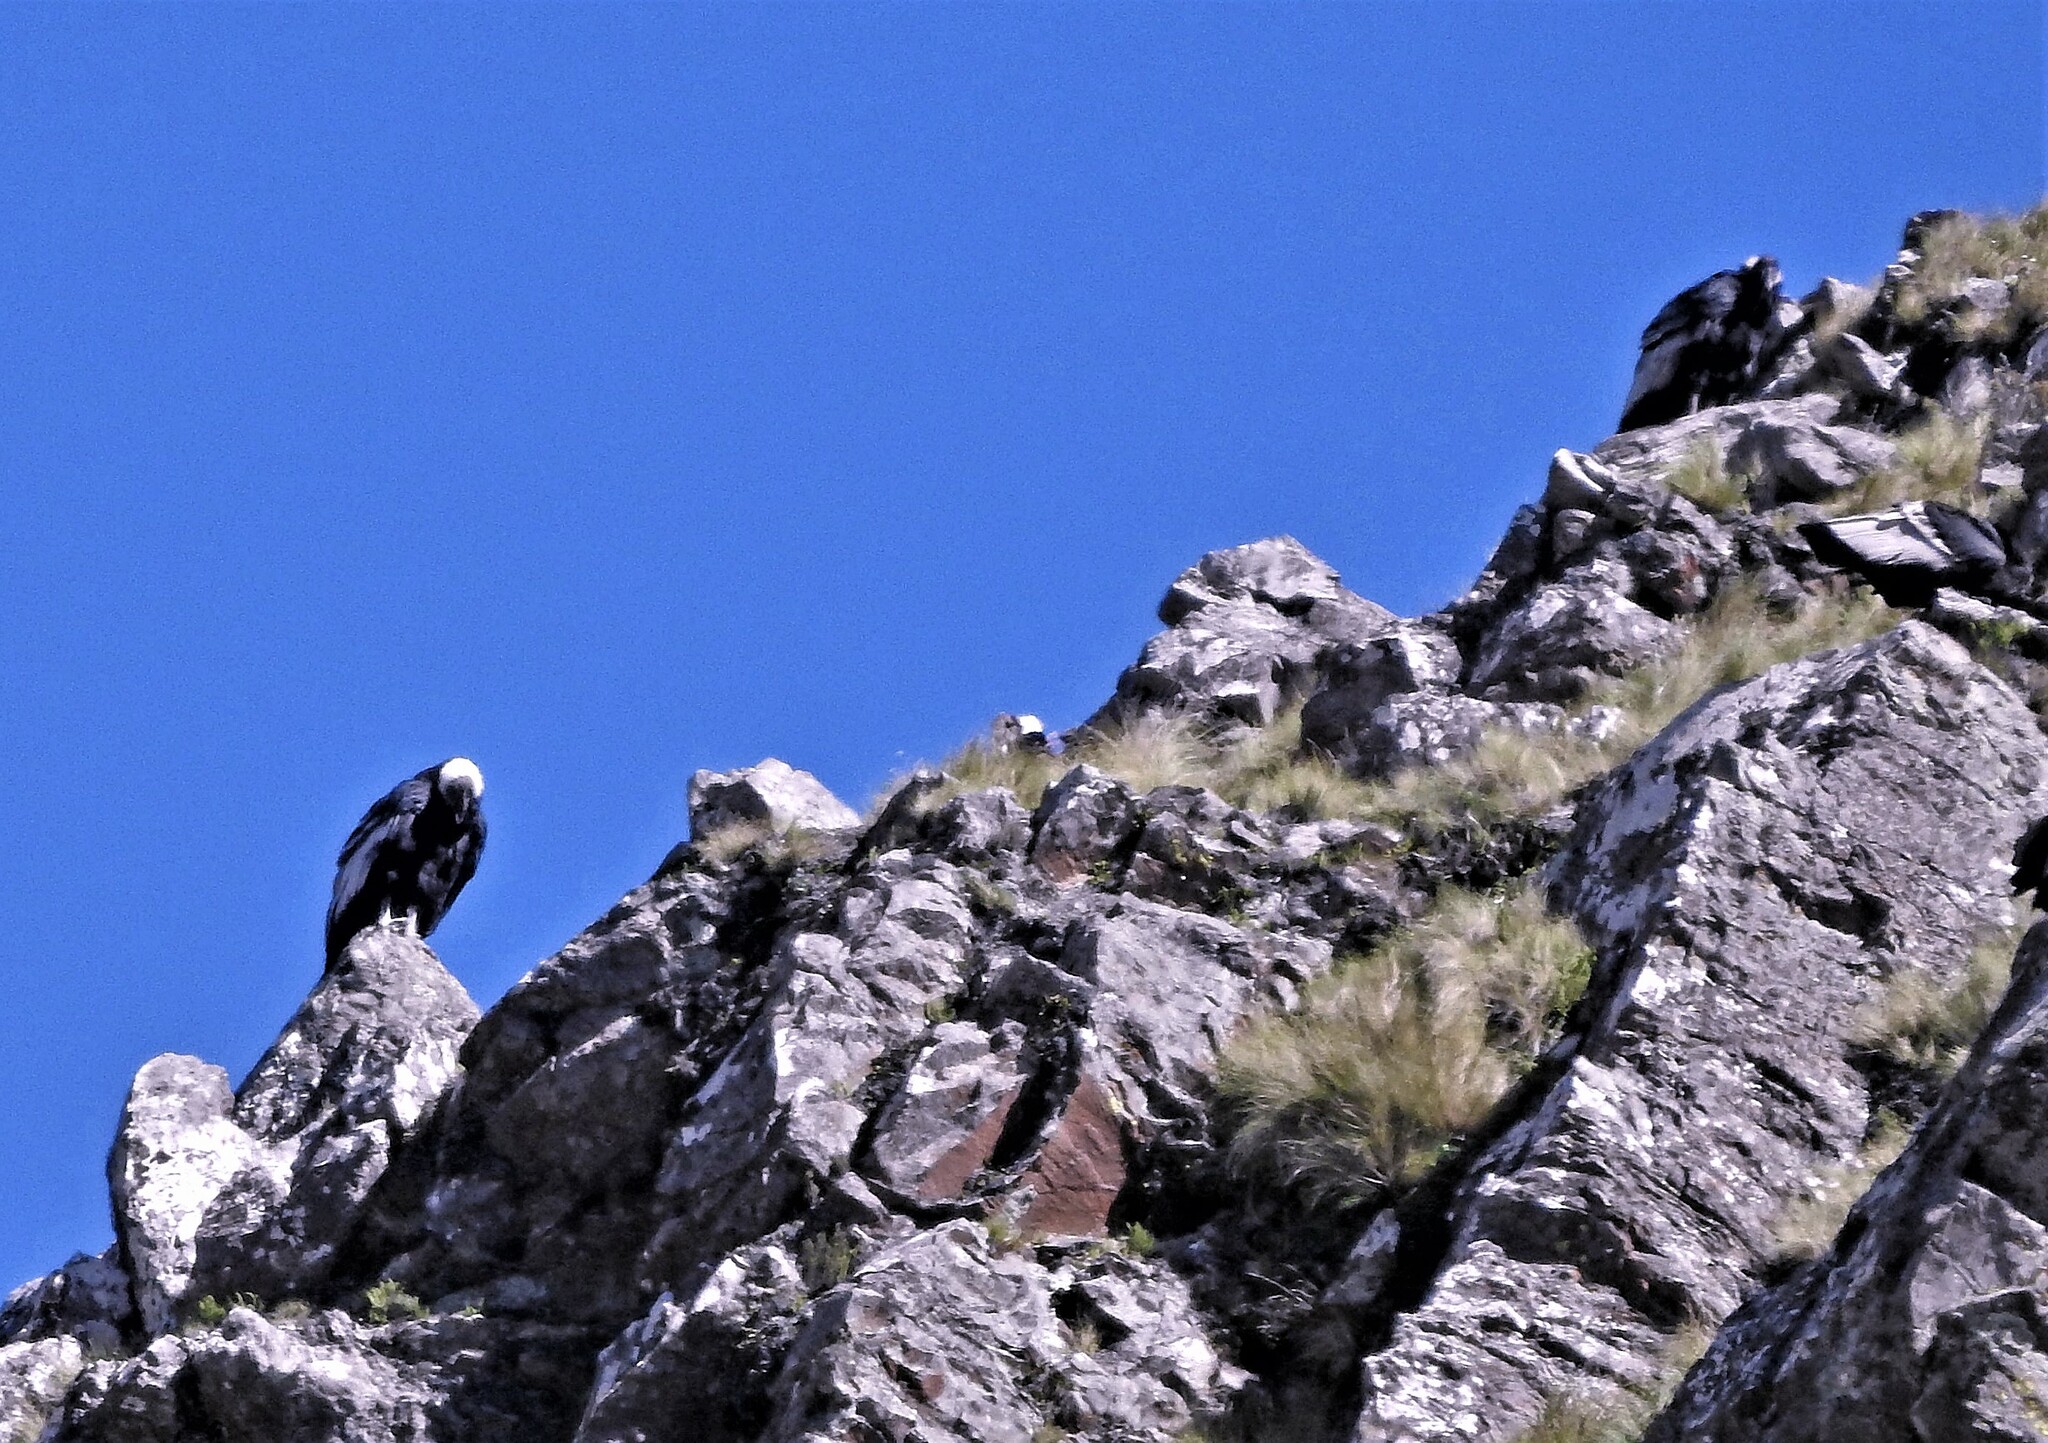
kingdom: Animalia
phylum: Chordata
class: Aves
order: Accipitriformes
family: Cathartidae
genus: Vultur
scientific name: Vultur gryphus
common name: Andean condor
